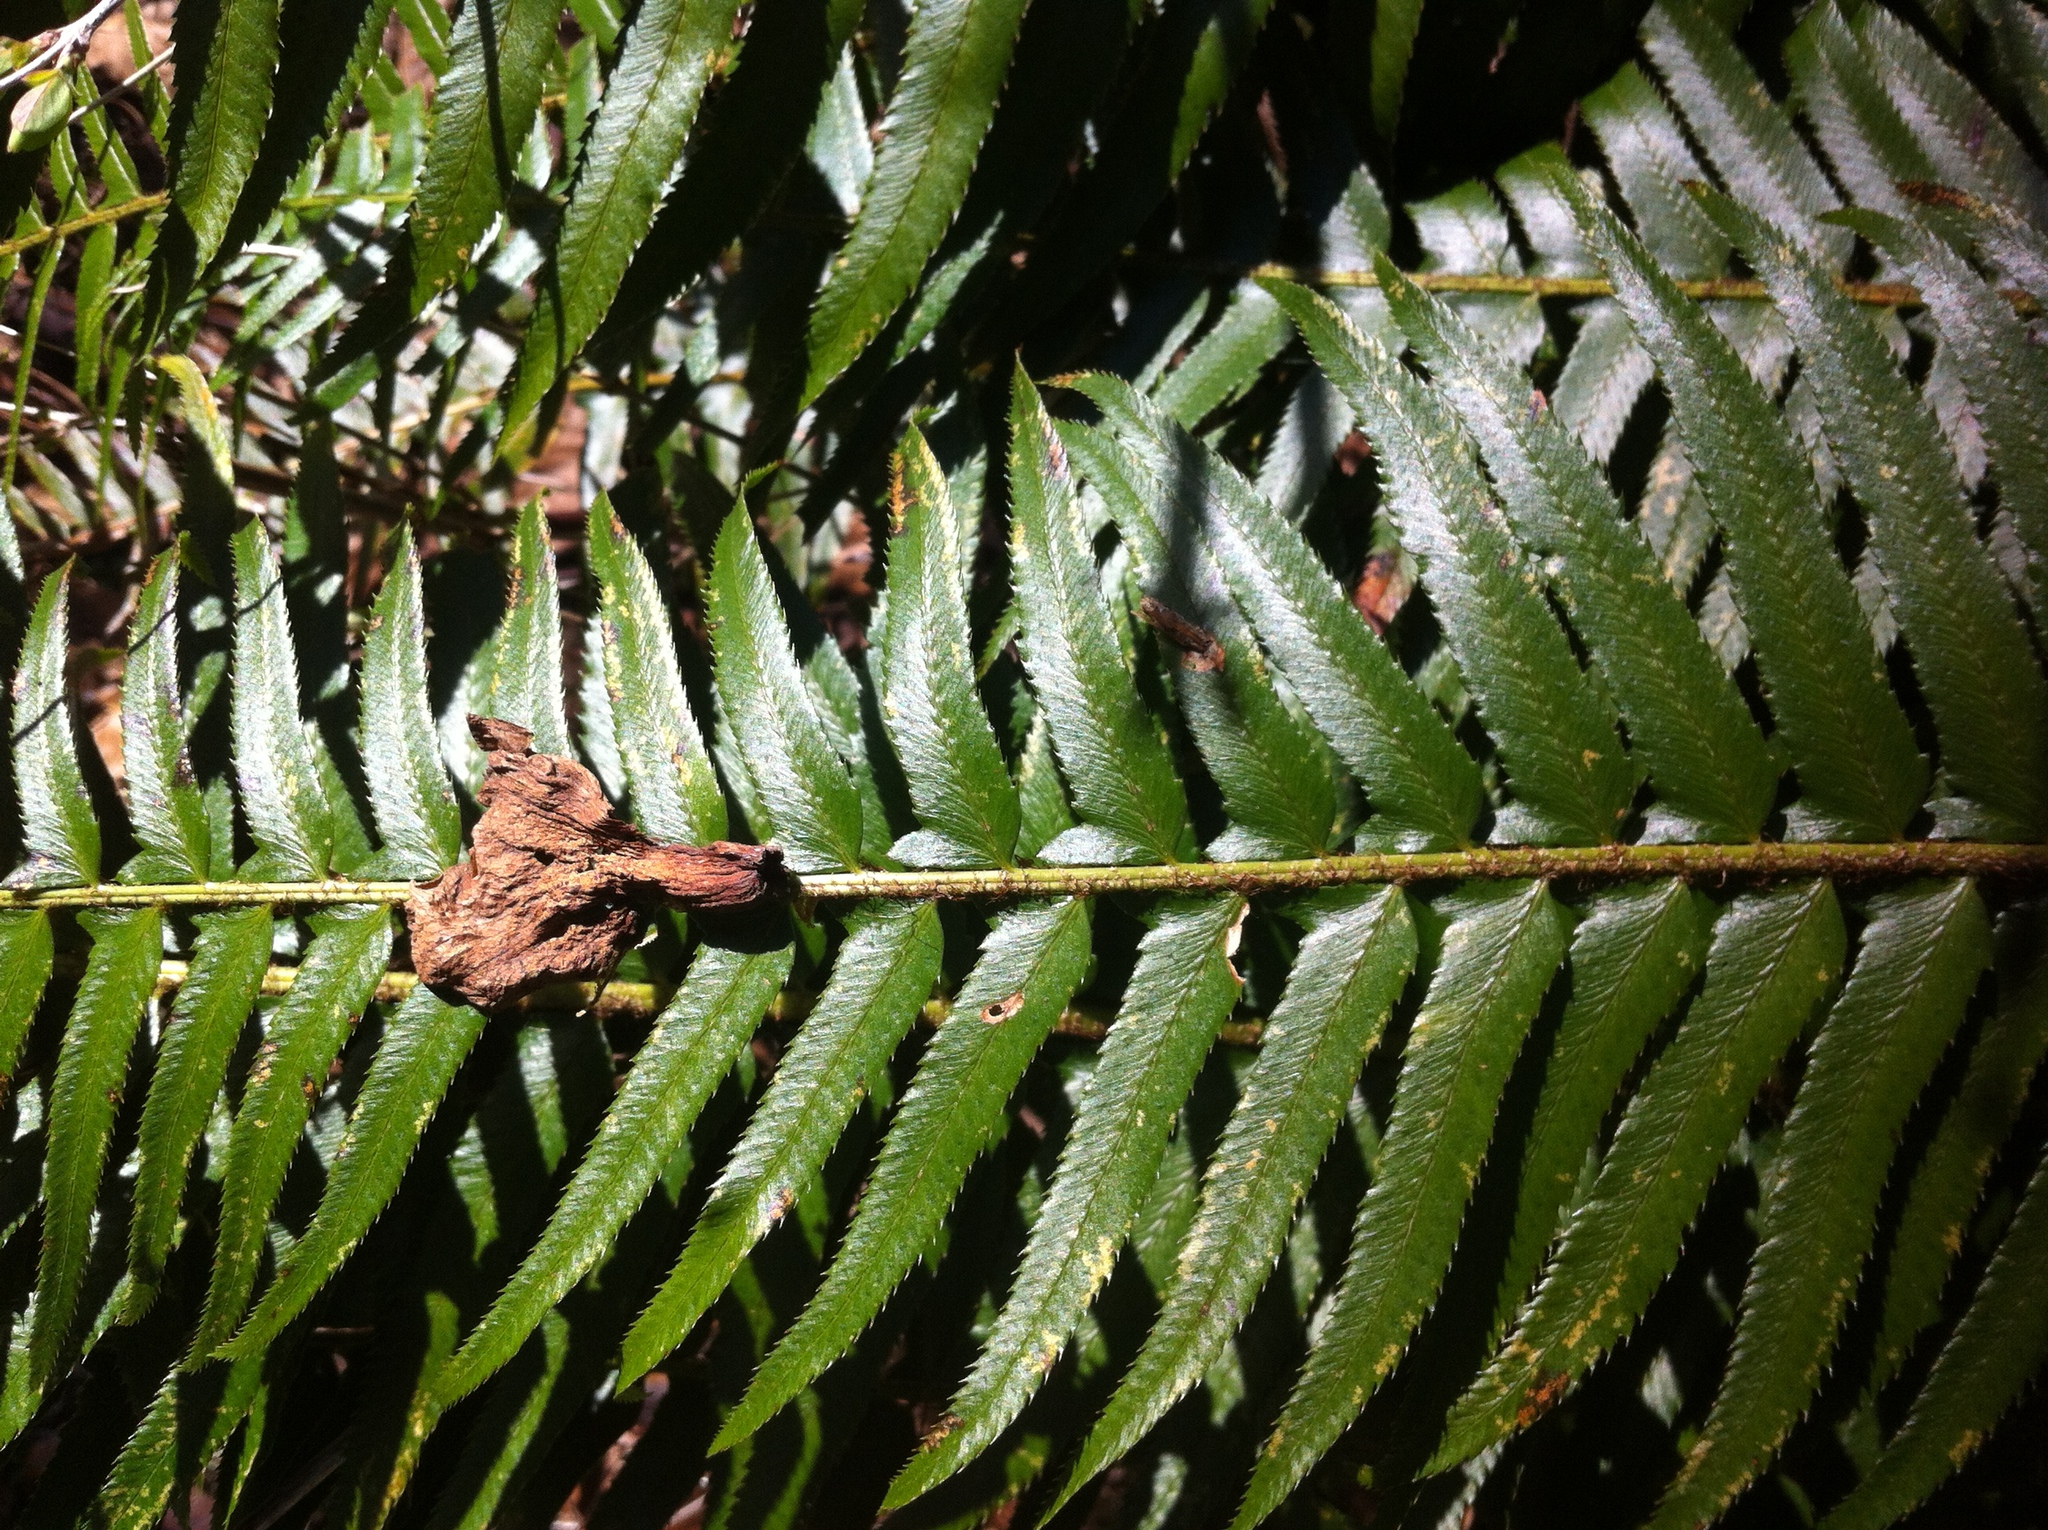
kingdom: Plantae
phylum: Tracheophyta
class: Polypodiopsida
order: Polypodiales
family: Dryopteridaceae
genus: Polystichum
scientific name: Polystichum munitum
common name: Western sword-fern
